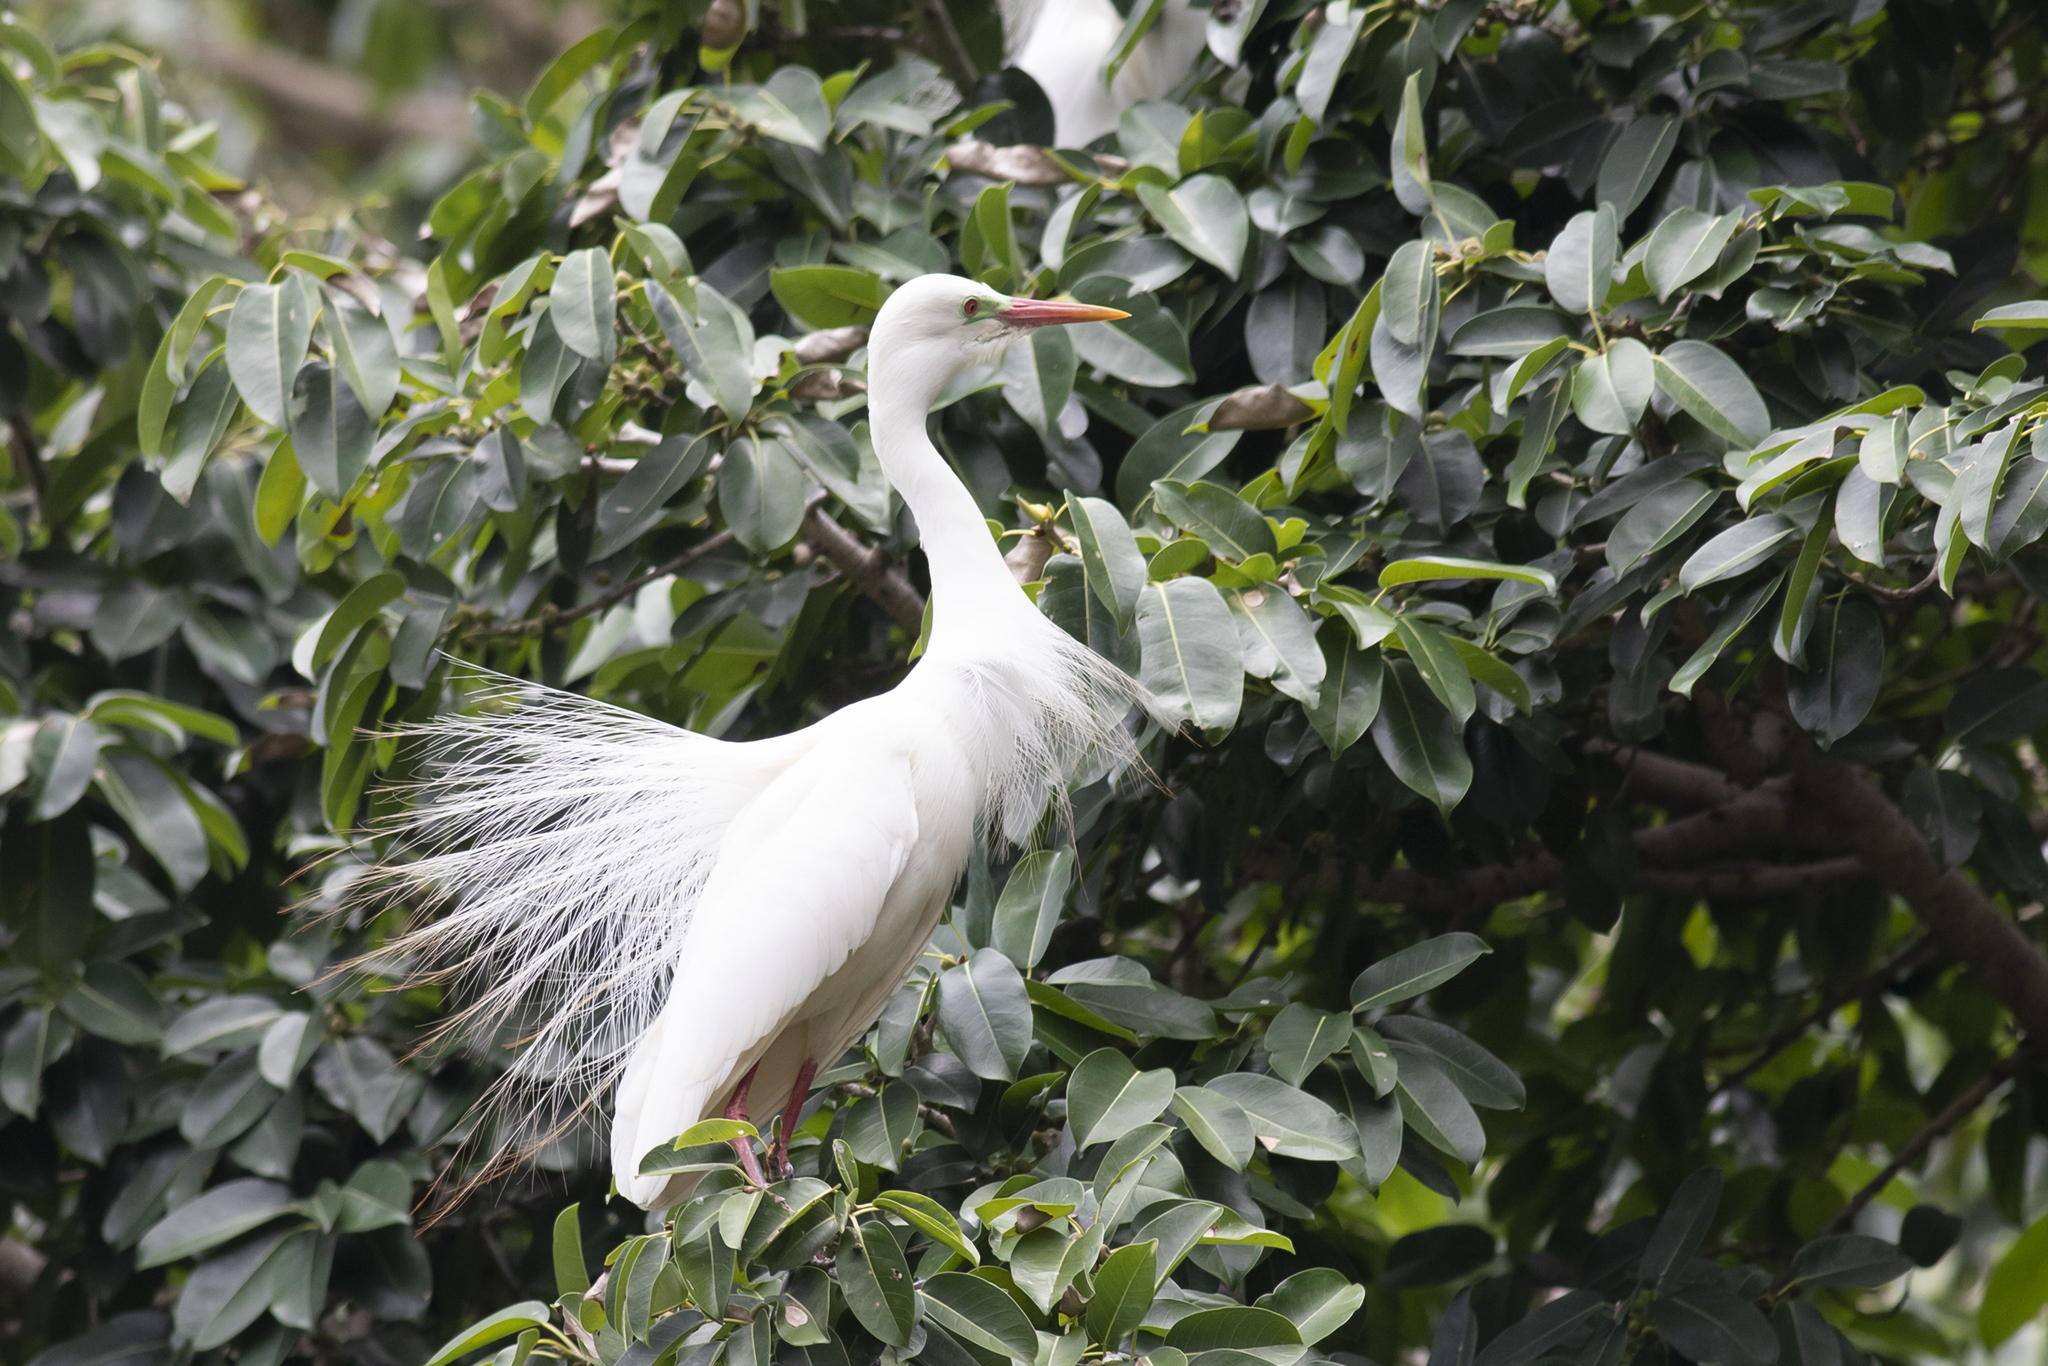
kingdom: Animalia
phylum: Chordata
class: Aves
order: Pelecaniformes
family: Ardeidae
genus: Egretta
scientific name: Egretta intermedia
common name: Intermediate egret
